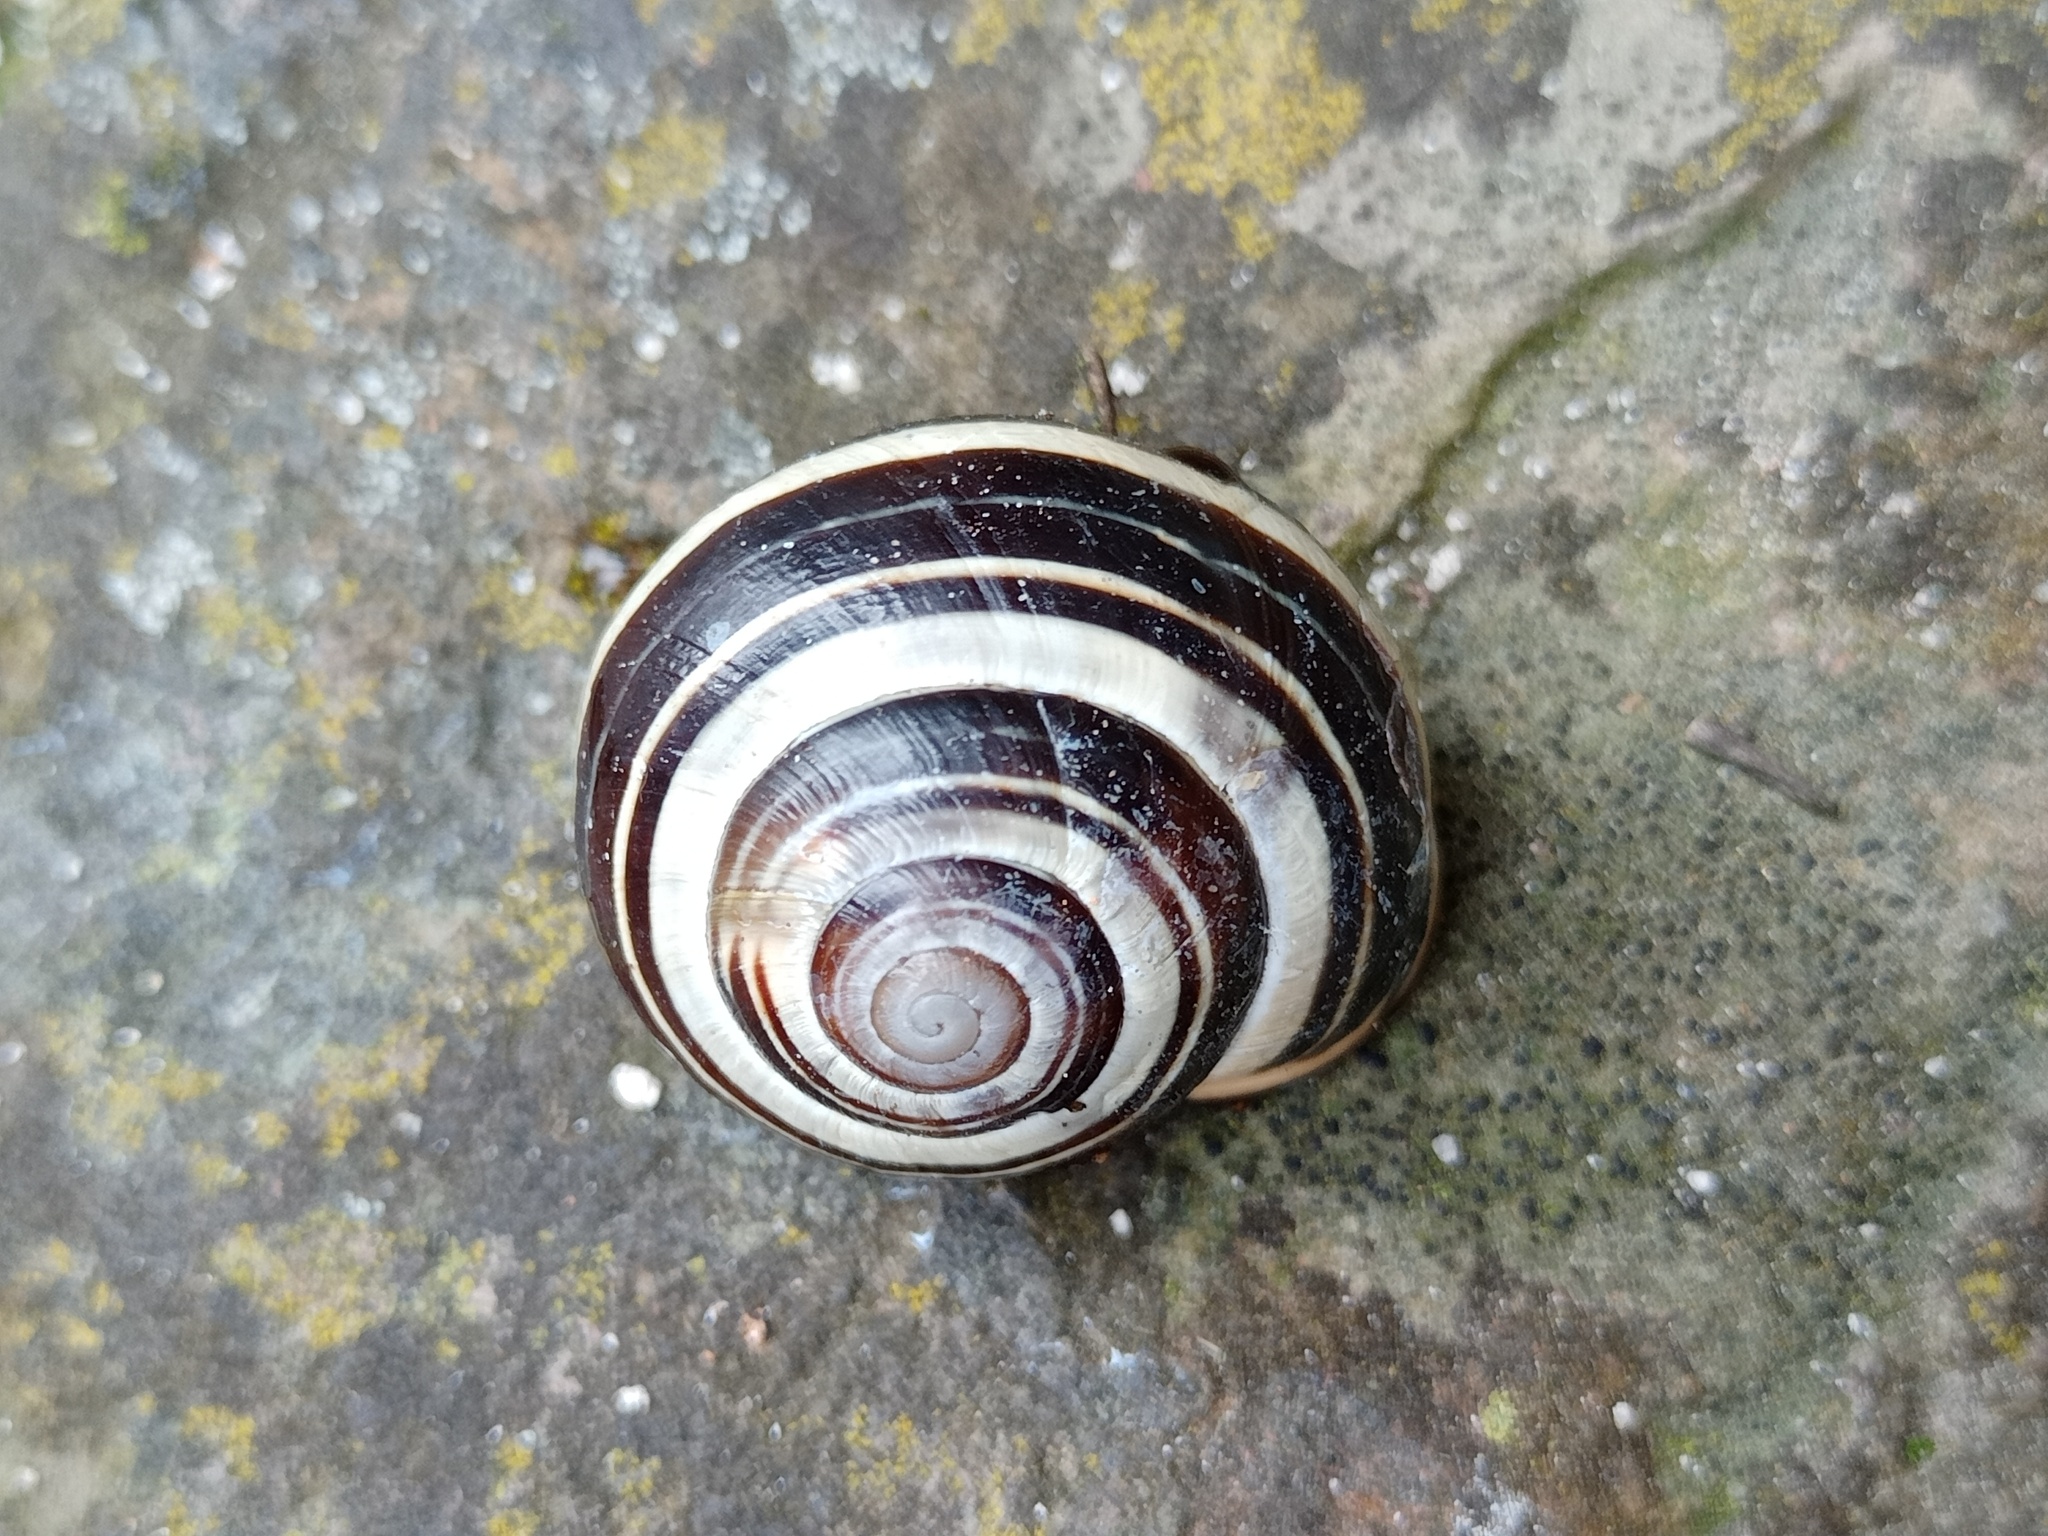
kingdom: Animalia
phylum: Mollusca
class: Gastropoda
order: Stylommatophora
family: Helicidae
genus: Cepaea
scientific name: Cepaea nemoralis
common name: Grovesnail
